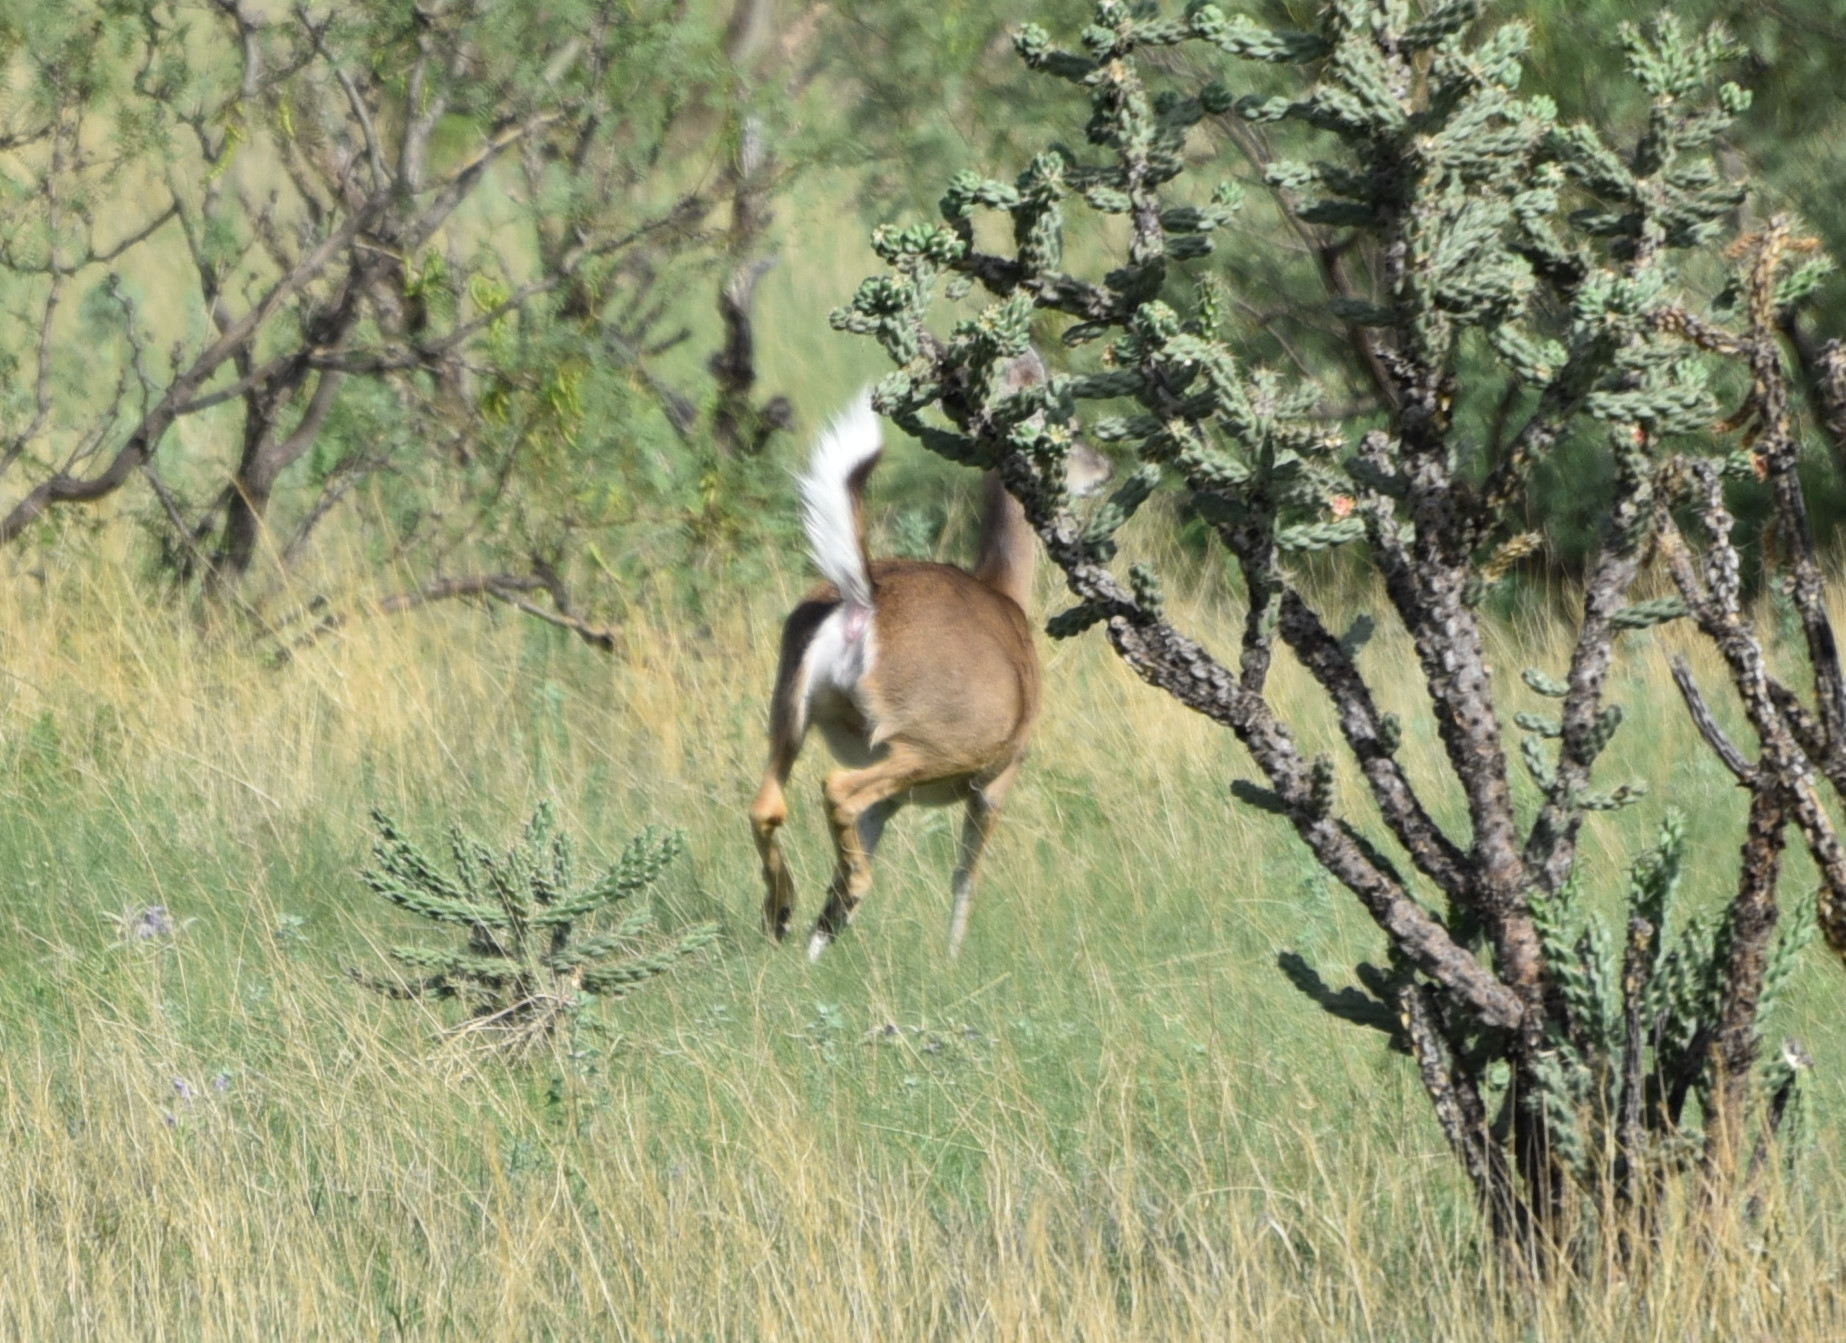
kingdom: Animalia
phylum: Chordata
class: Mammalia
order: Artiodactyla
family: Cervidae
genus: Odocoileus
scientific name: Odocoileus virginianus
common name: White-tailed deer
